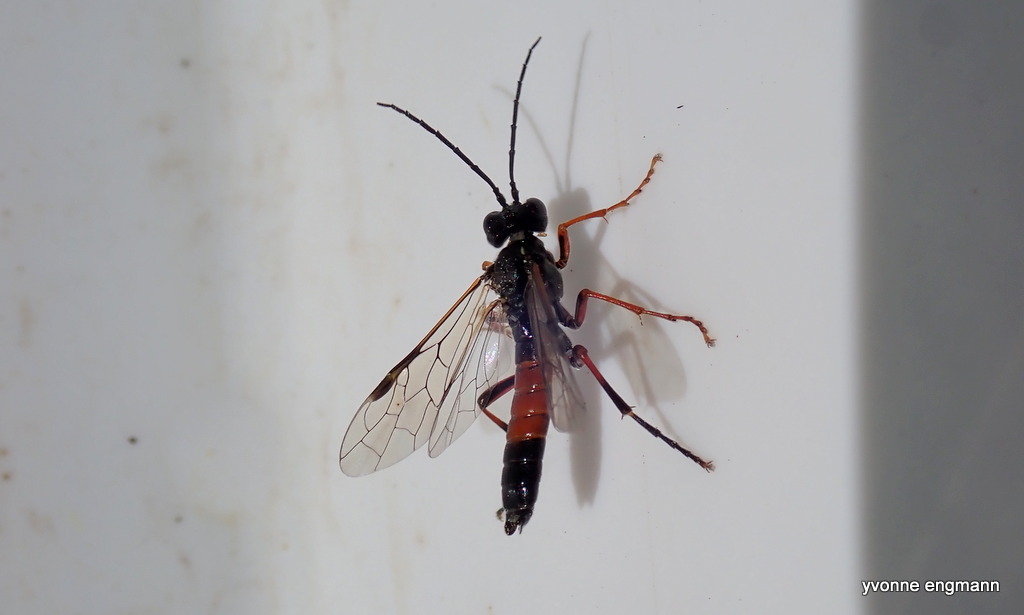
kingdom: Animalia
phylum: Arthropoda
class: Insecta
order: Hymenoptera
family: Tenthredinidae
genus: Tenthredo
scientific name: Tenthredo atra
